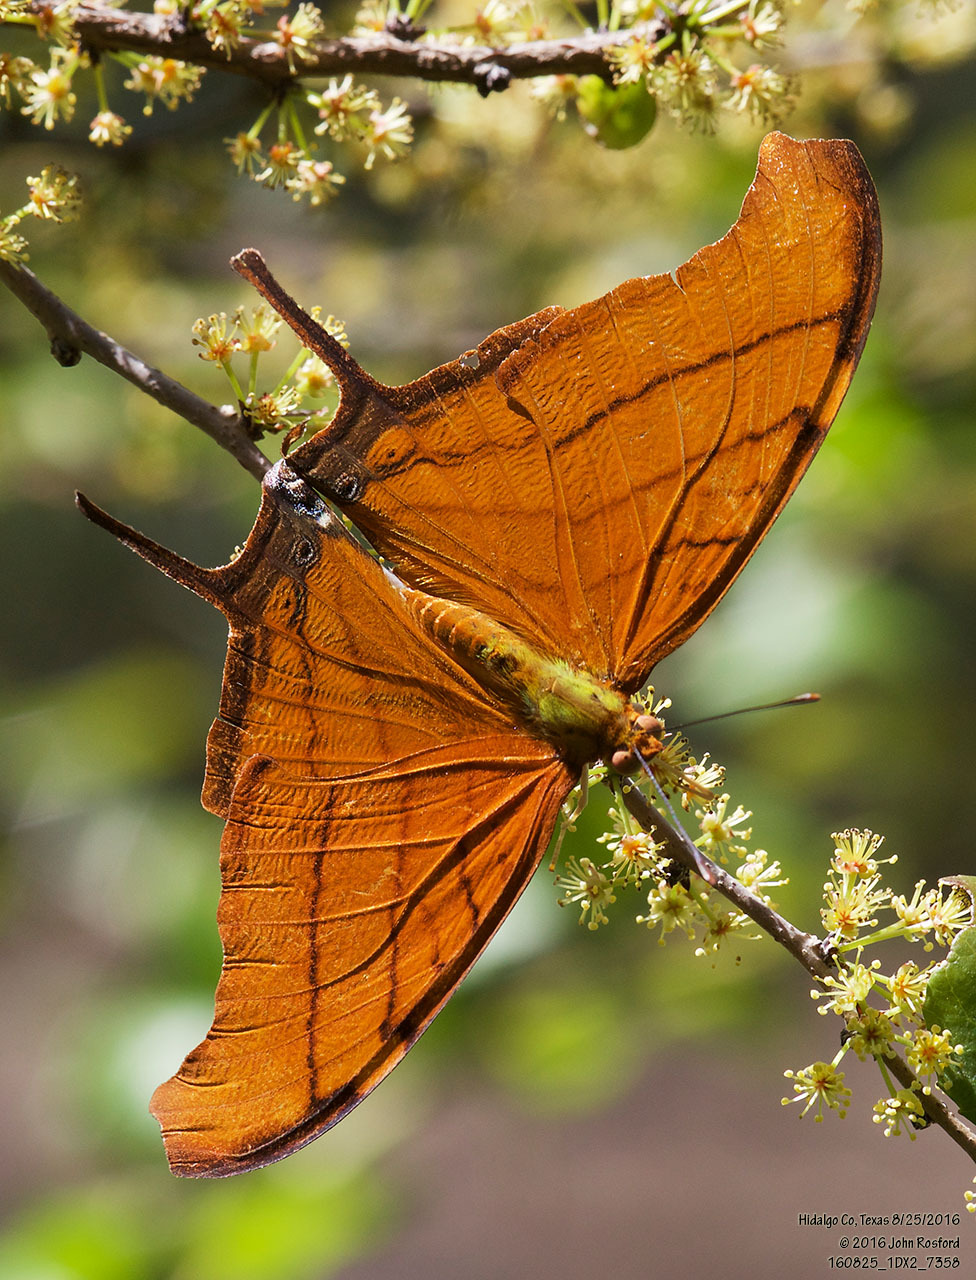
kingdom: Animalia
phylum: Arthropoda
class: Insecta
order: Lepidoptera
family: Nymphalidae
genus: Marpesia
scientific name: Marpesia petreus
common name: Red dagger wing
